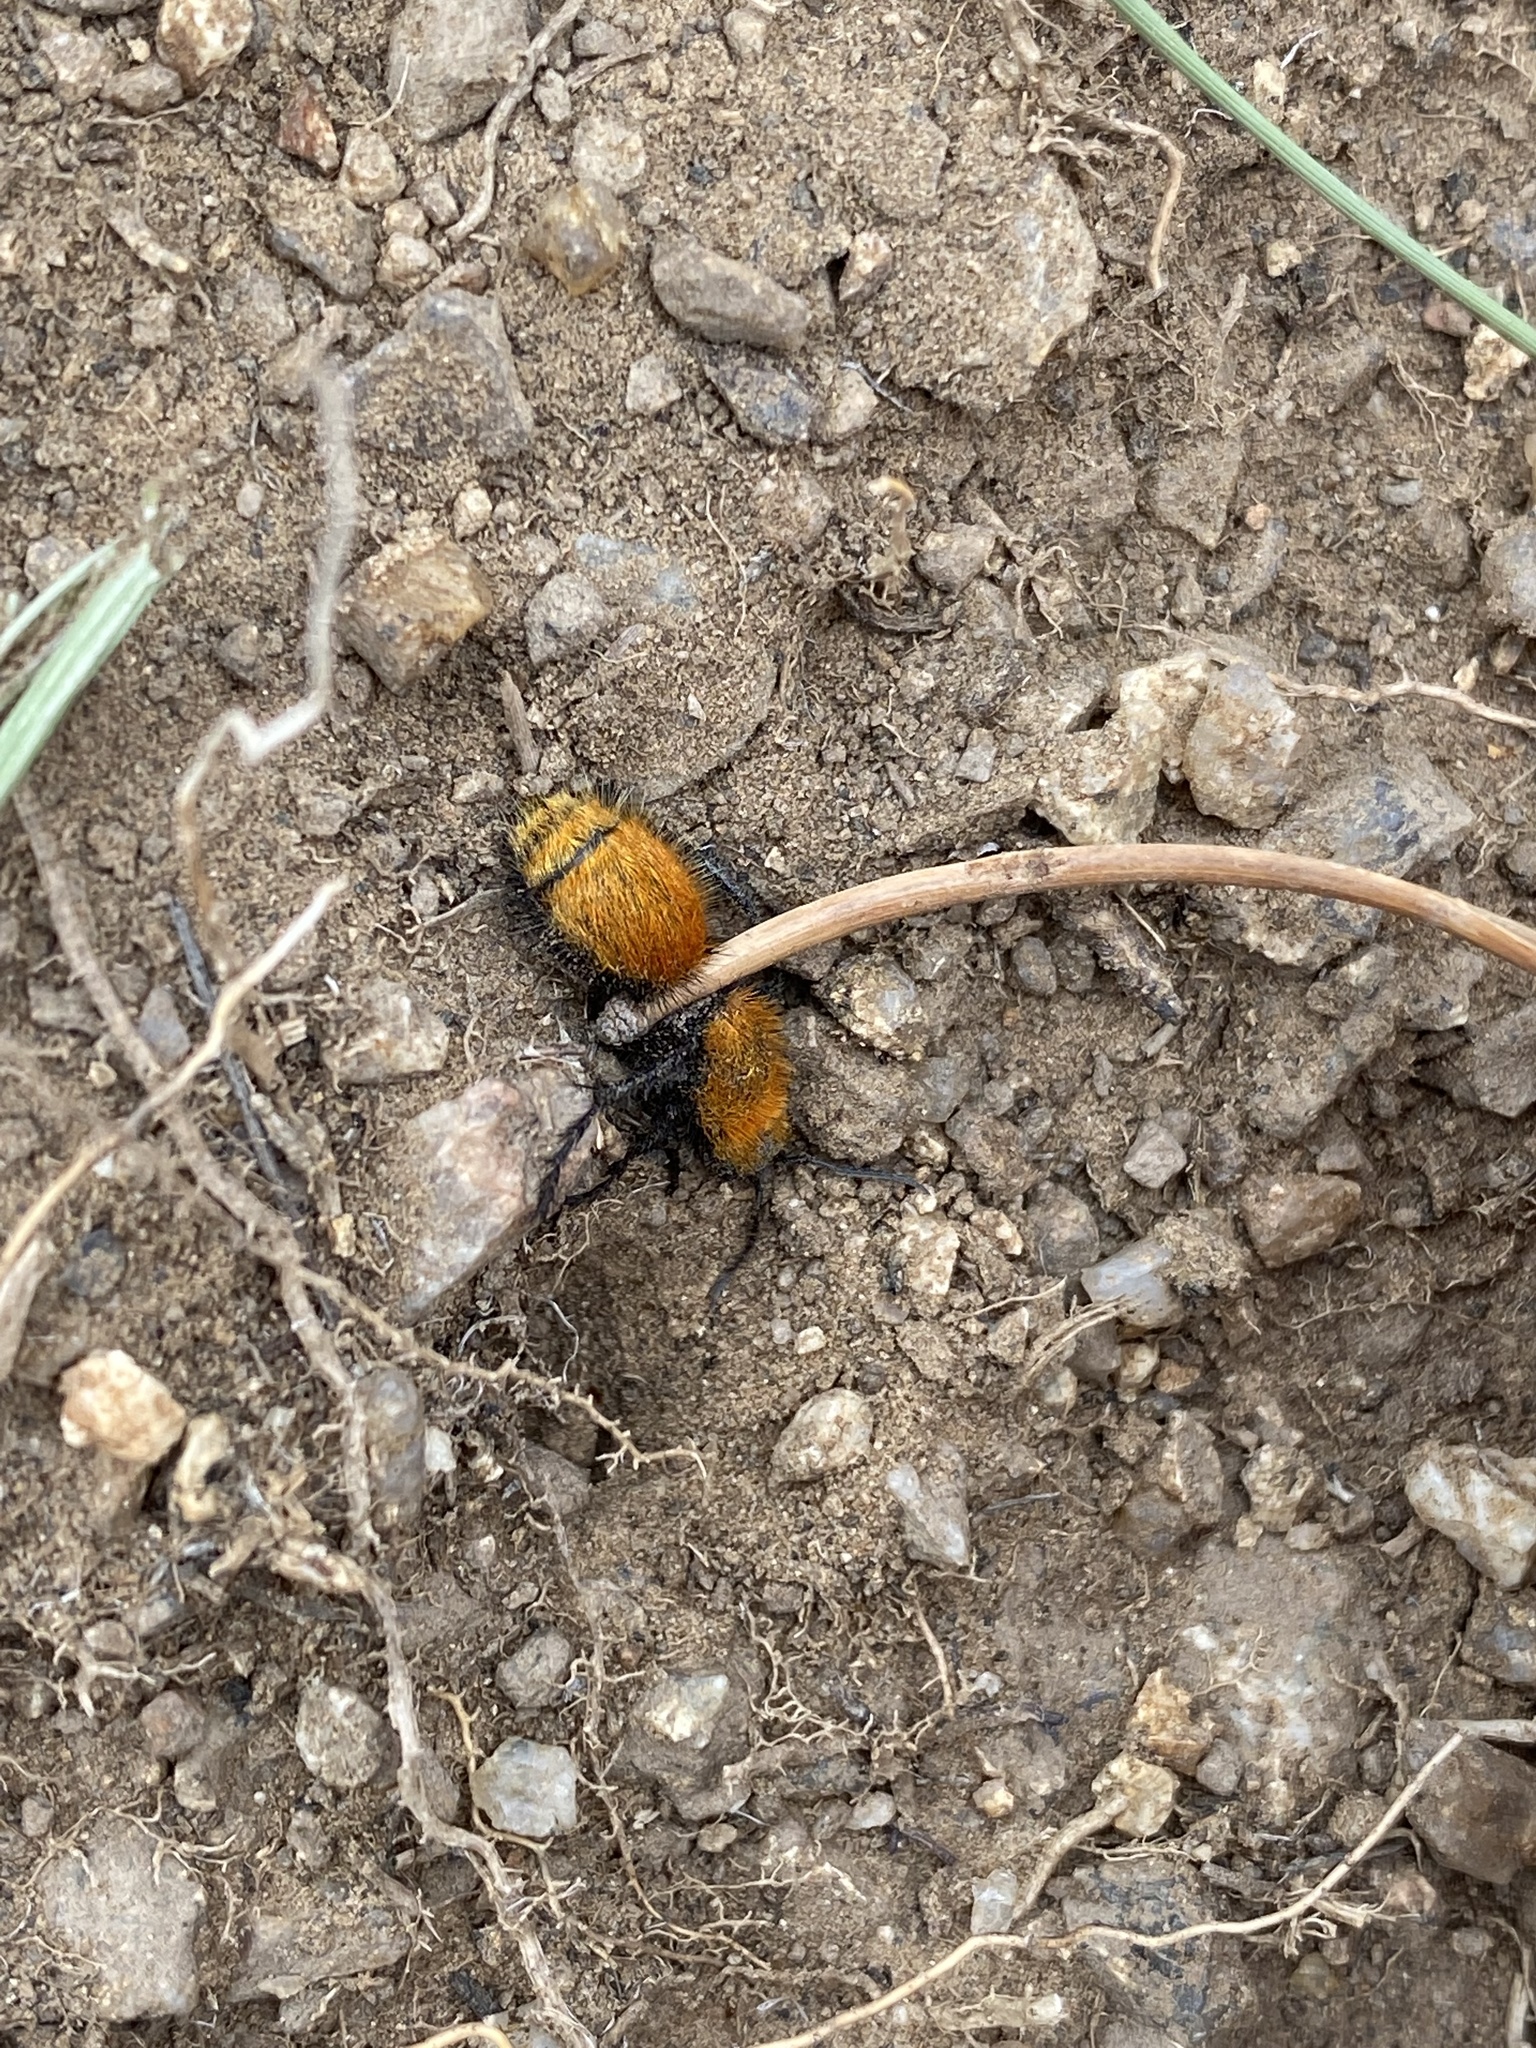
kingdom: Animalia
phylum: Arthropoda
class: Insecta
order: Hymenoptera
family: Mutillidae
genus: Dasymutilla
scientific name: Dasymutilla vestita
